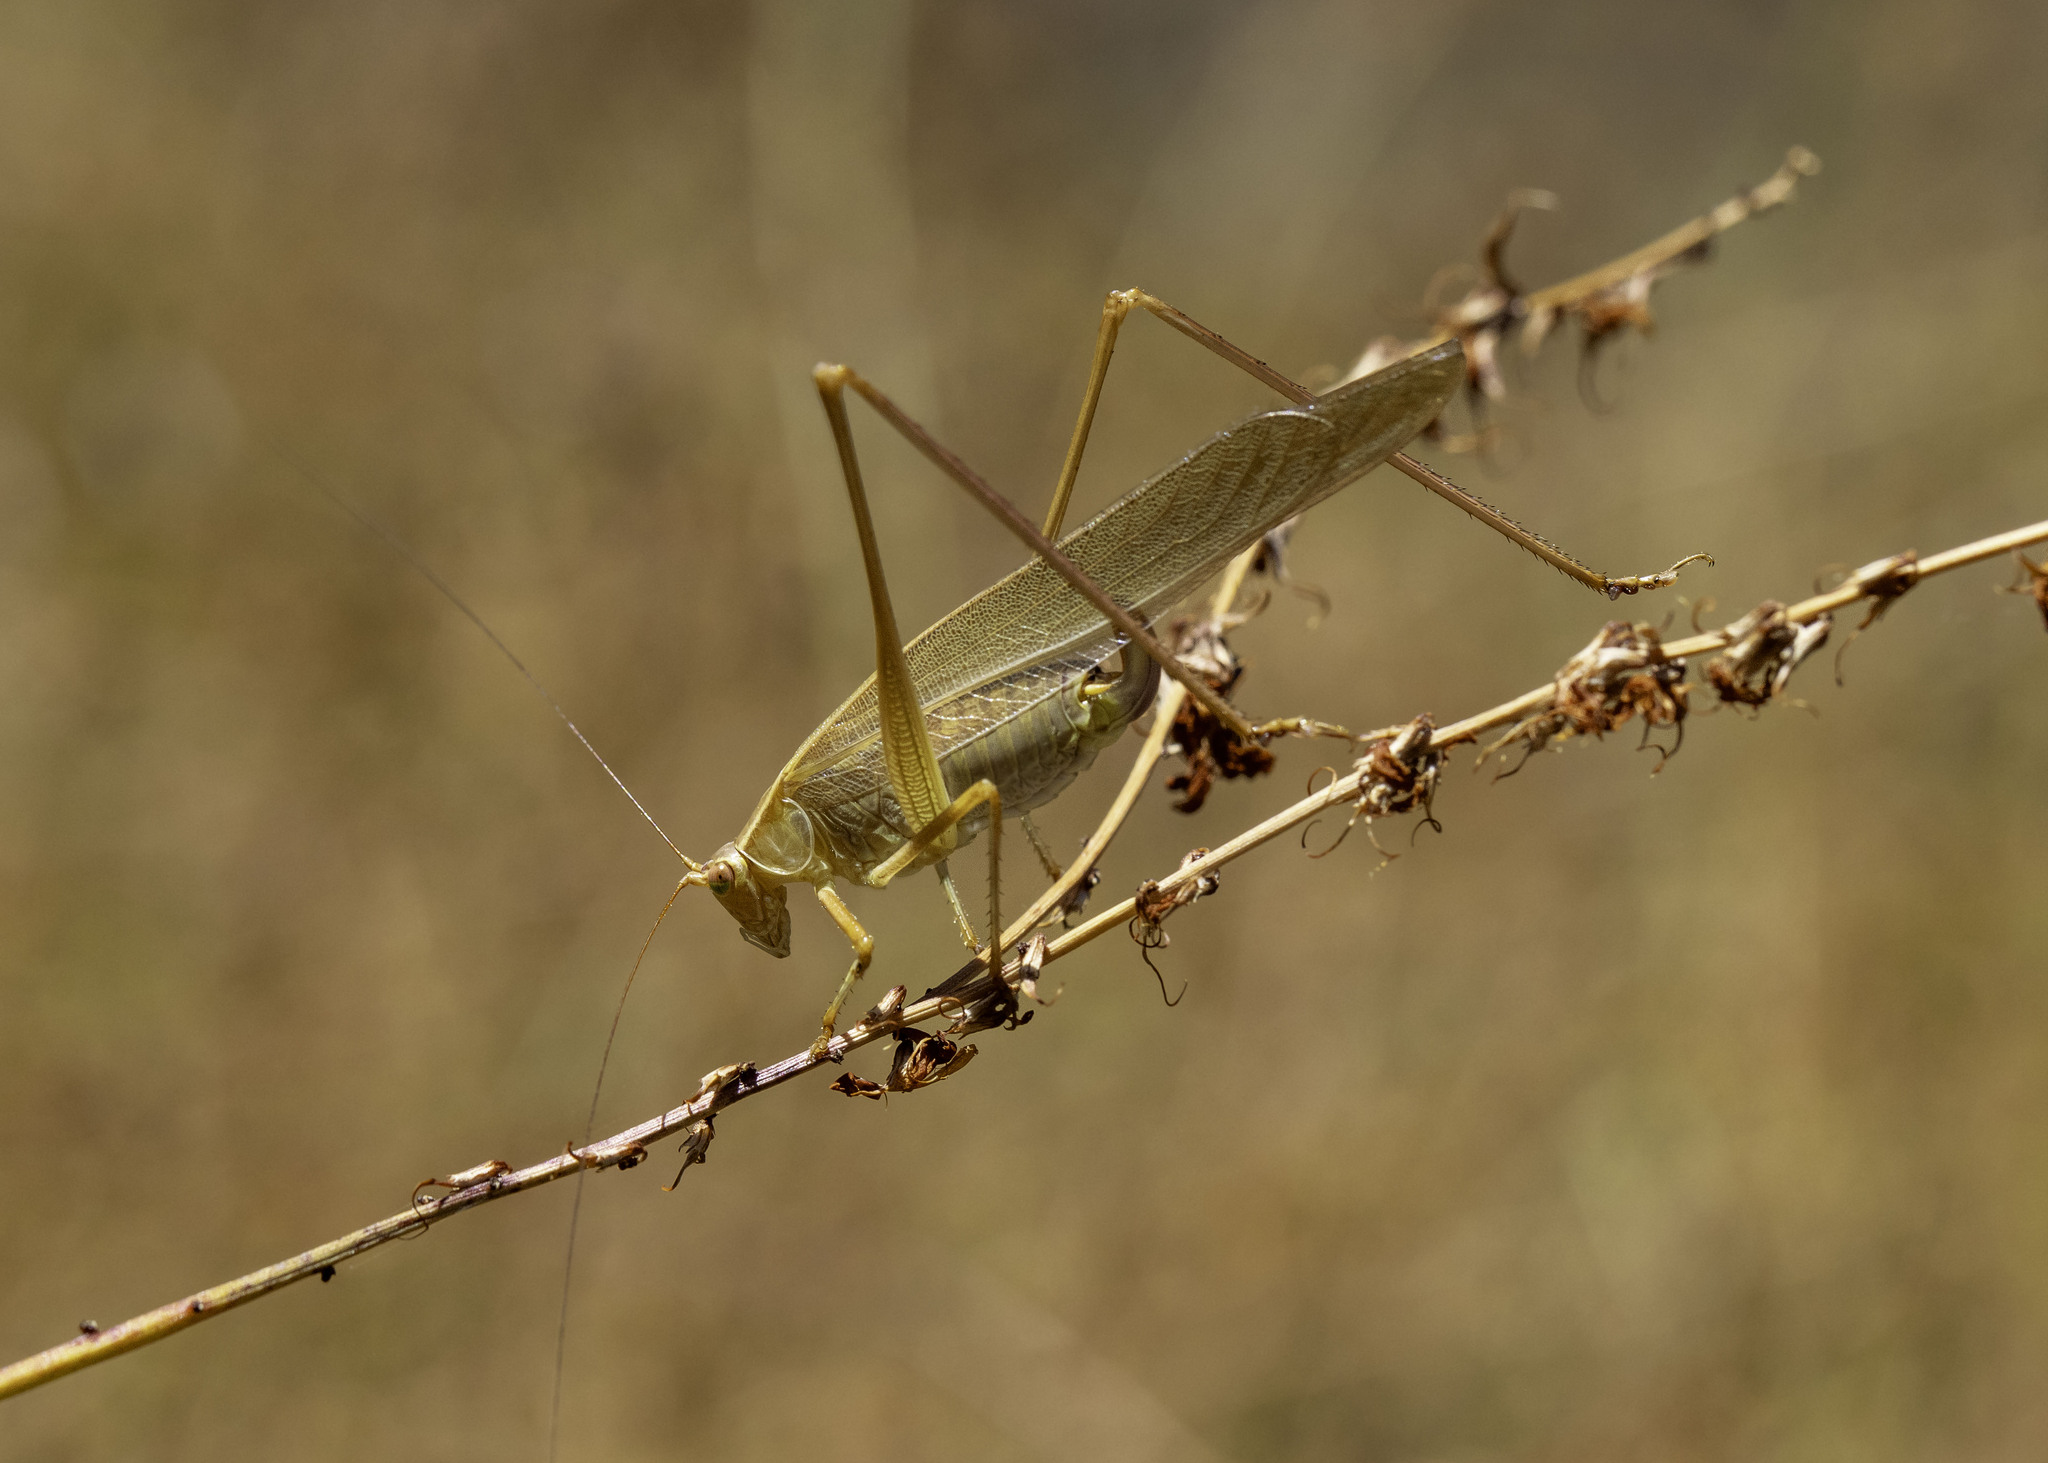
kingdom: Animalia
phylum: Arthropoda
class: Insecta
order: Orthoptera
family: Tettigoniidae
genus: Scudderia
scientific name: Scudderia mexicana
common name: Mexican bush katydid
